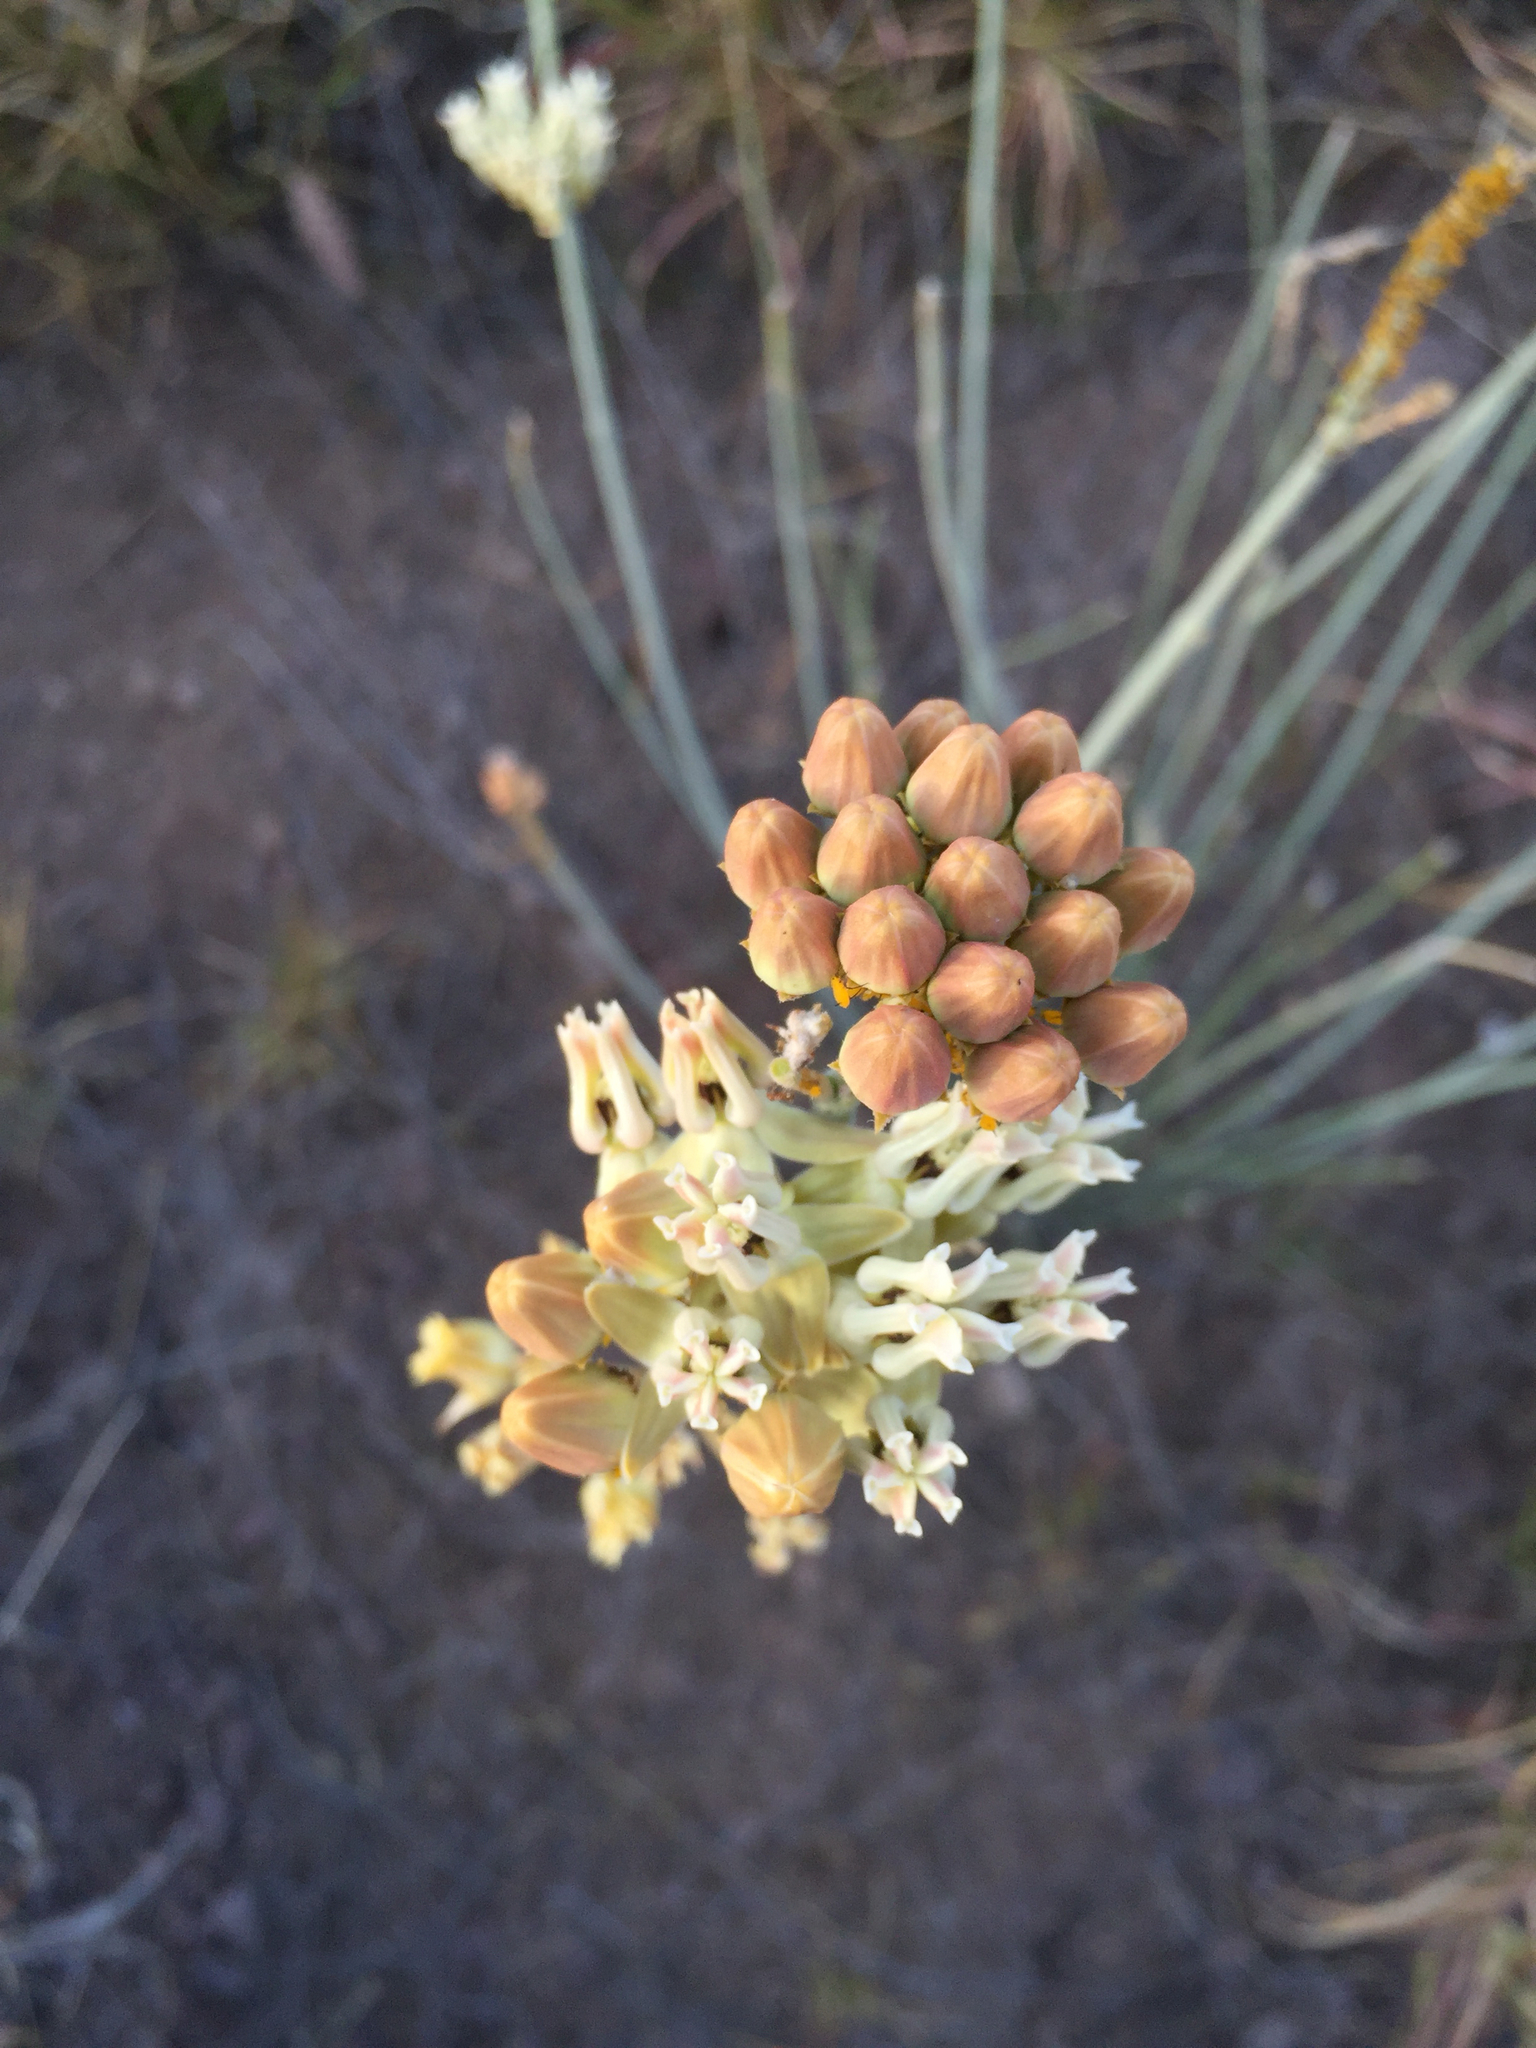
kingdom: Plantae
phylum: Tracheophyta
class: Magnoliopsida
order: Gentianales
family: Apocynaceae
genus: Asclepias
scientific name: Asclepias subulata
